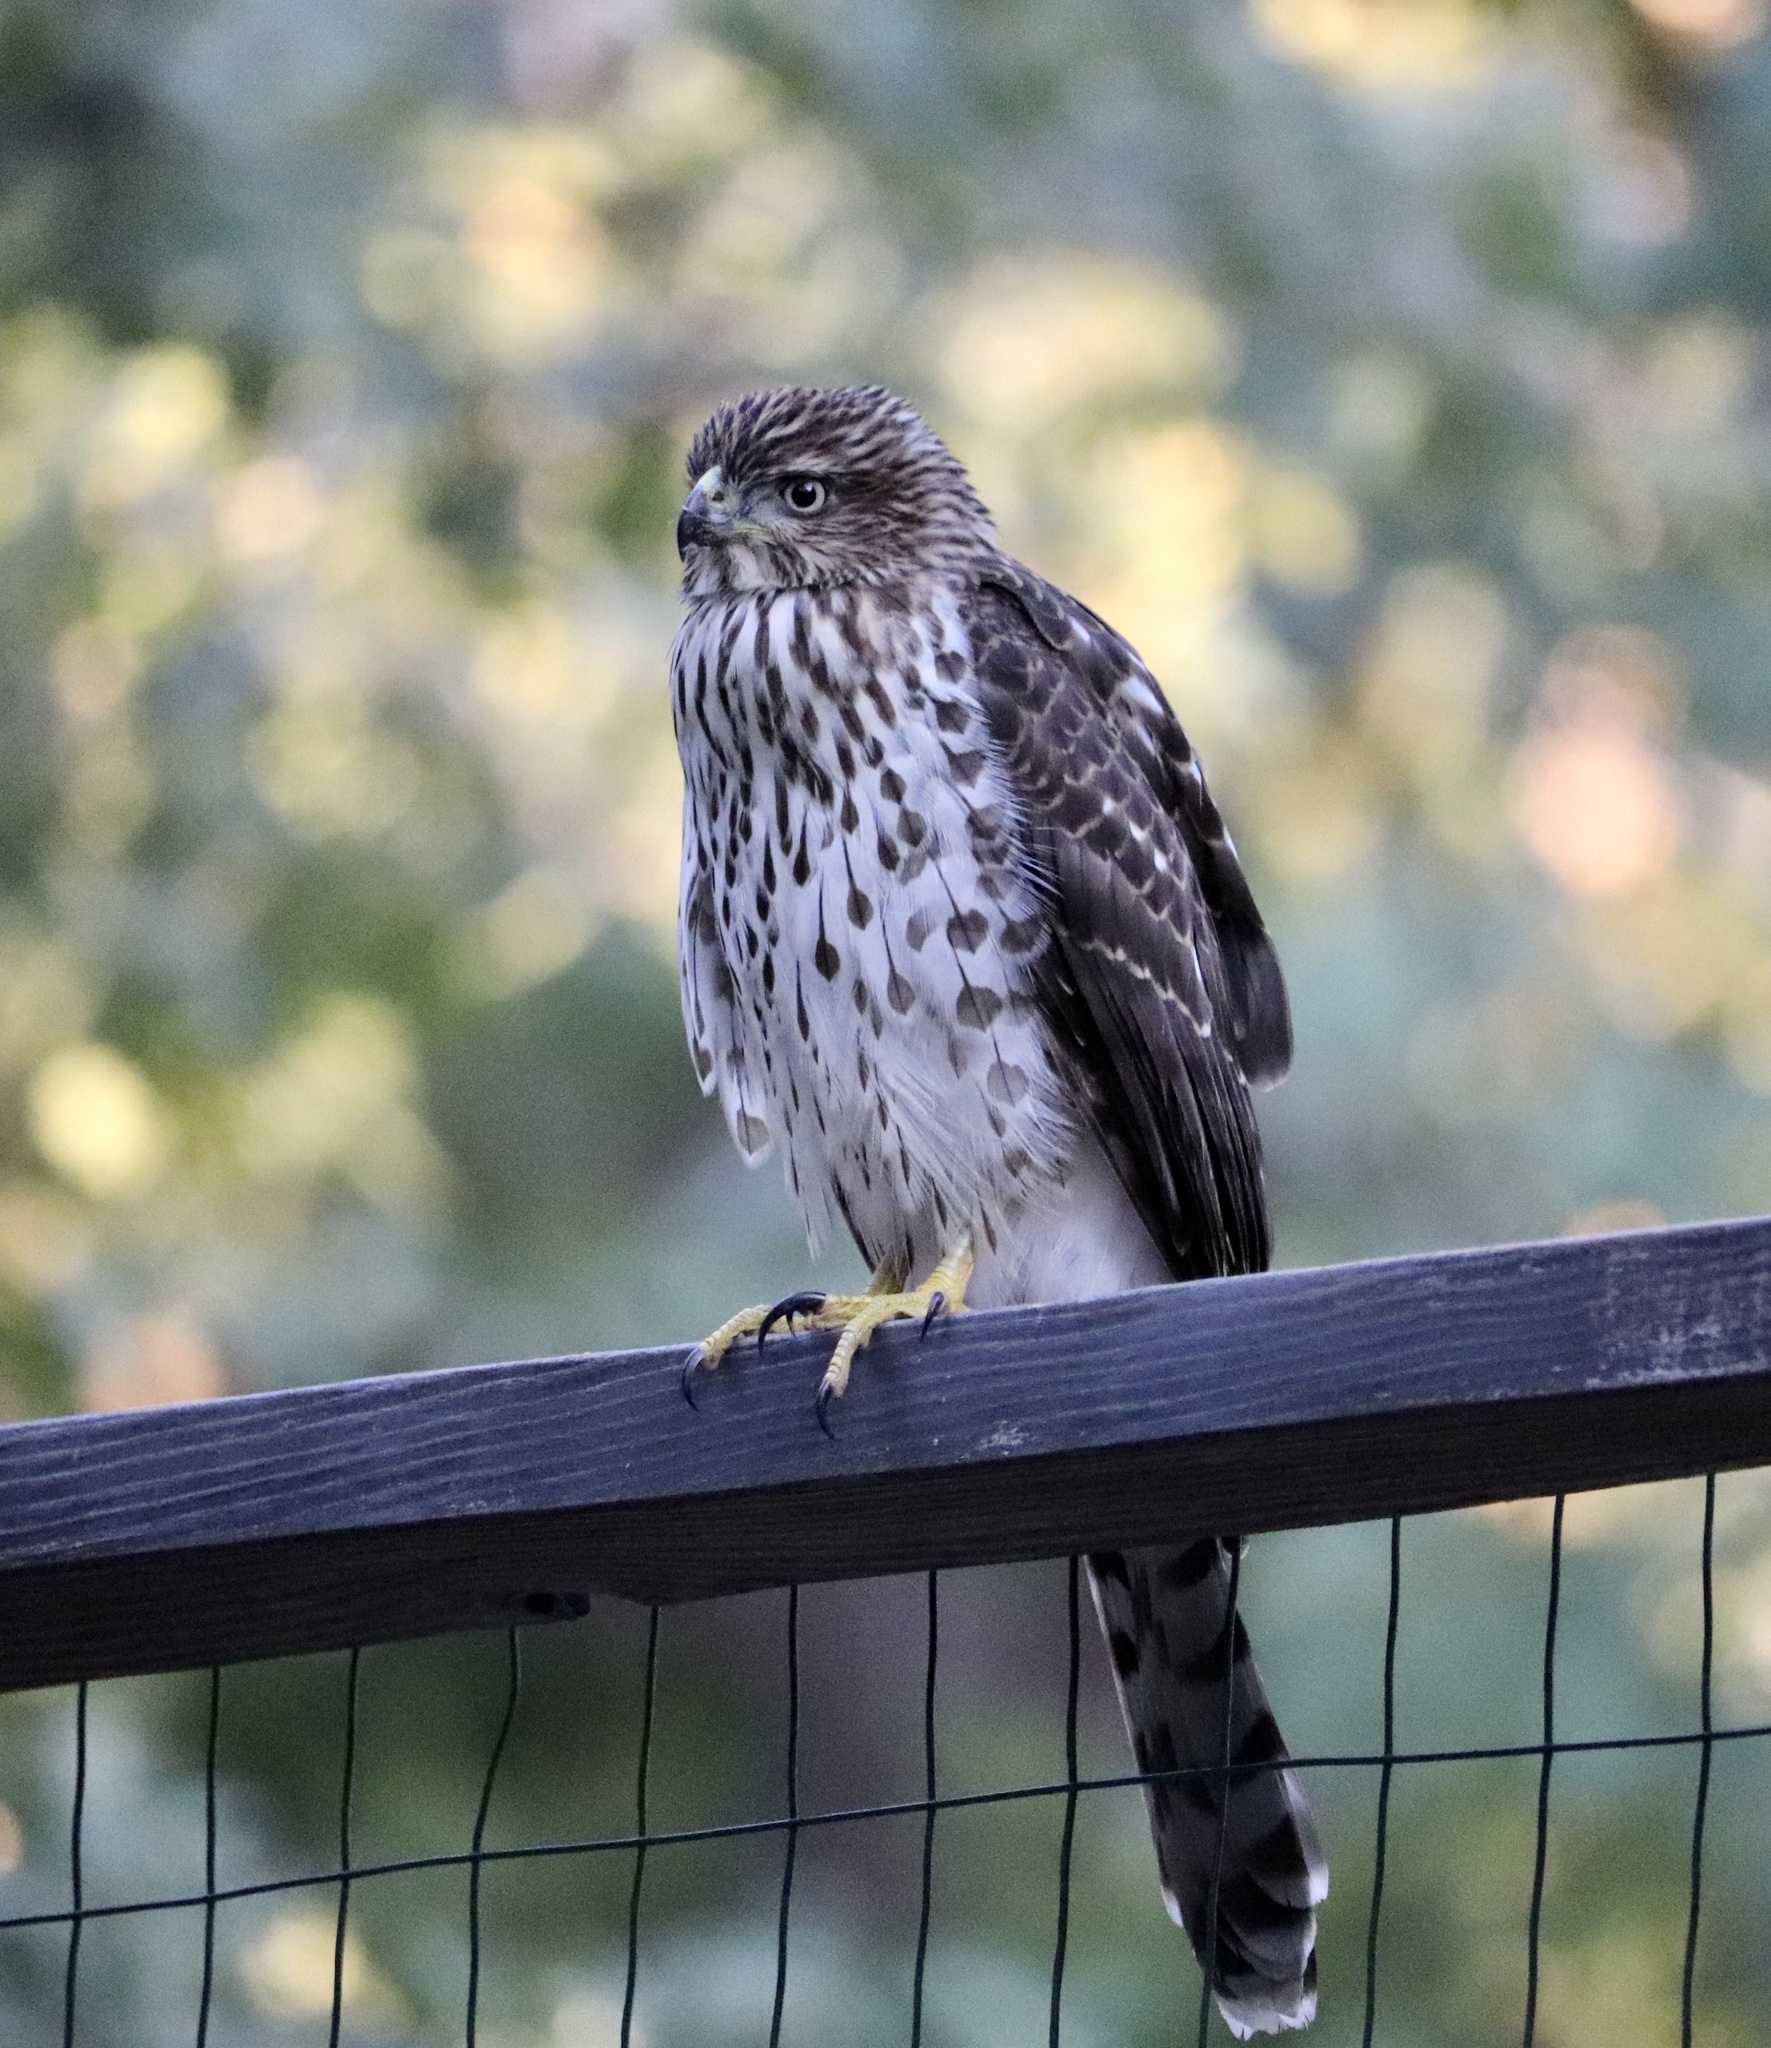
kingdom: Animalia
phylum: Chordata
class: Aves
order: Accipitriformes
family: Accipitridae
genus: Accipiter
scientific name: Accipiter cooperii
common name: Cooper's hawk
